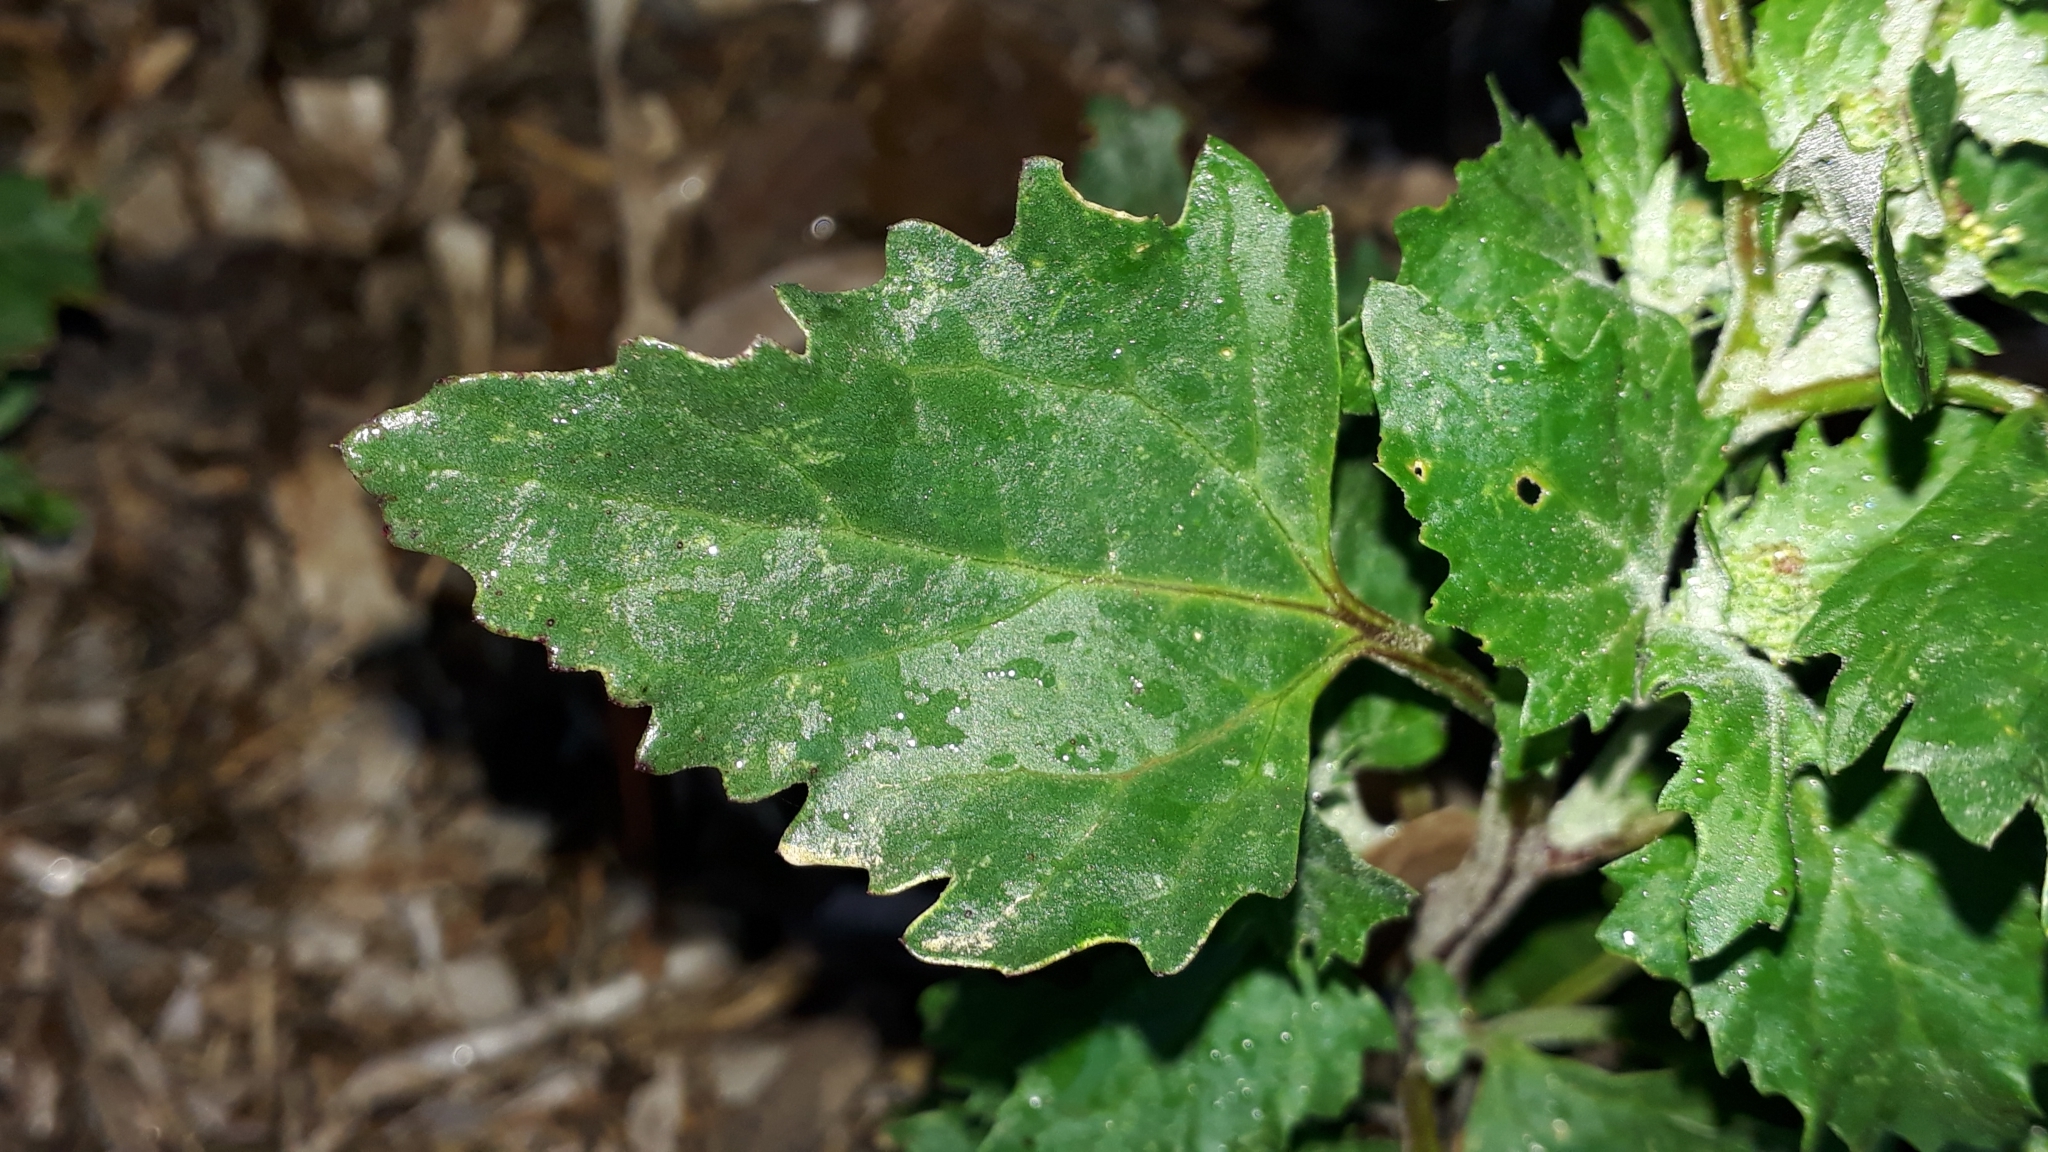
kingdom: Plantae
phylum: Tracheophyta
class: Magnoliopsida
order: Caryophyllales
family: Amaranthaceae
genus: Chenopodiastrum
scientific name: Chenopodiastrum murale
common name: Sowbane
